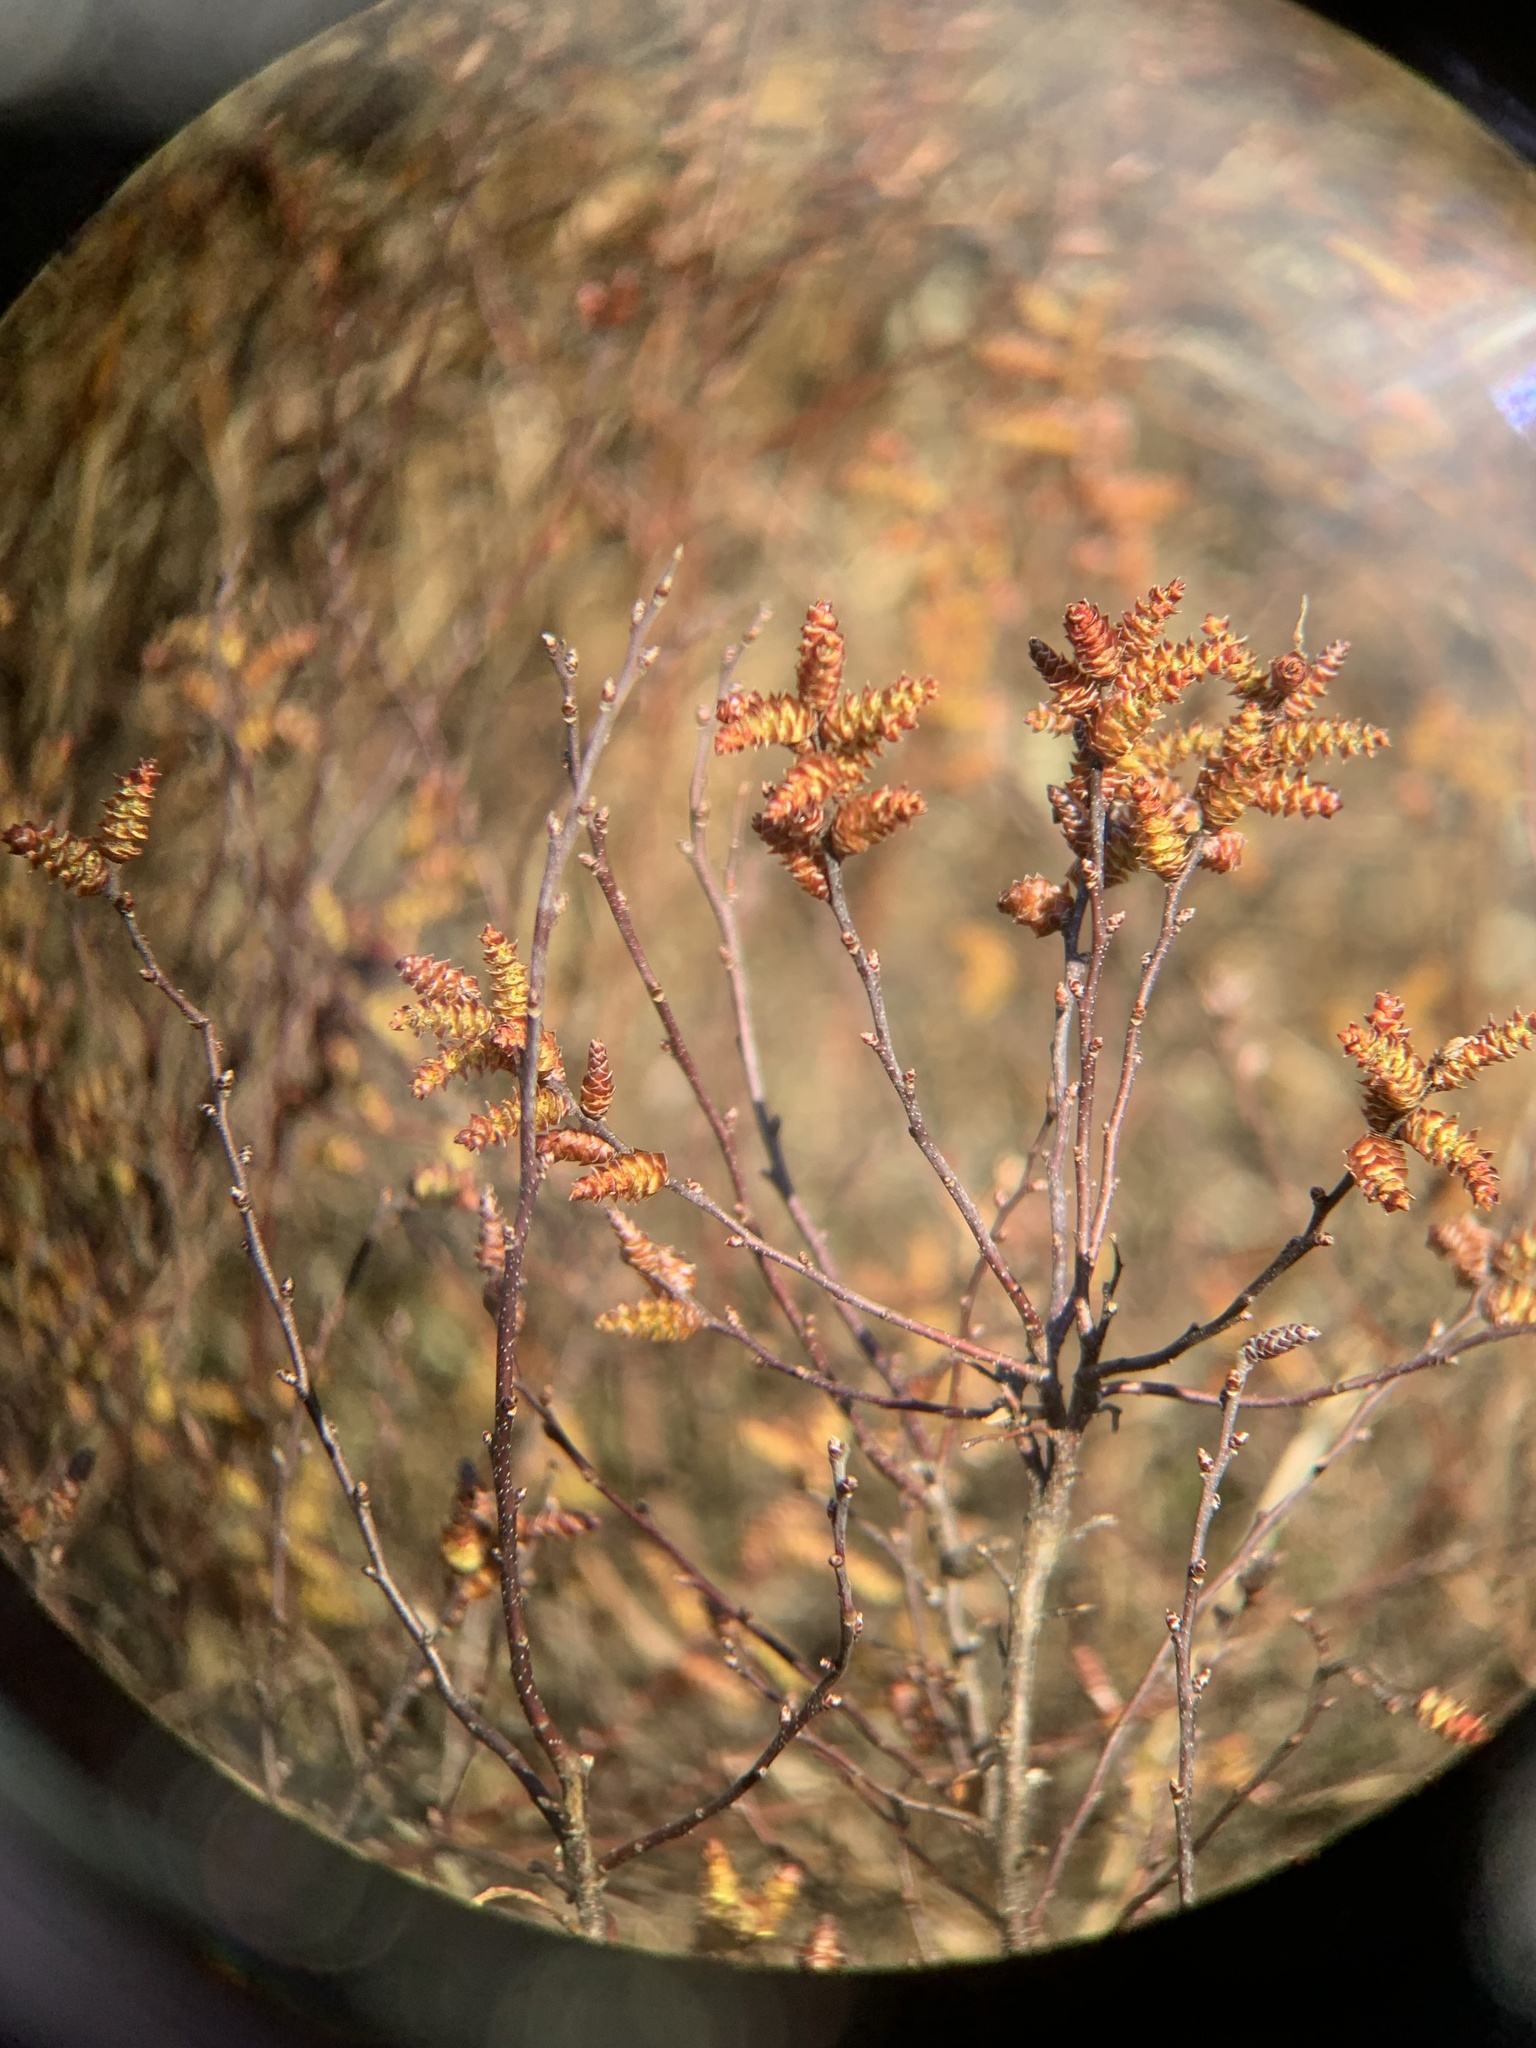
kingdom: Plantae
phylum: Tracheophyta
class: Magnoliopsida
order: Fagales
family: Myricaceae
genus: Myrica
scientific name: Myrica gale
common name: Sweet gale
